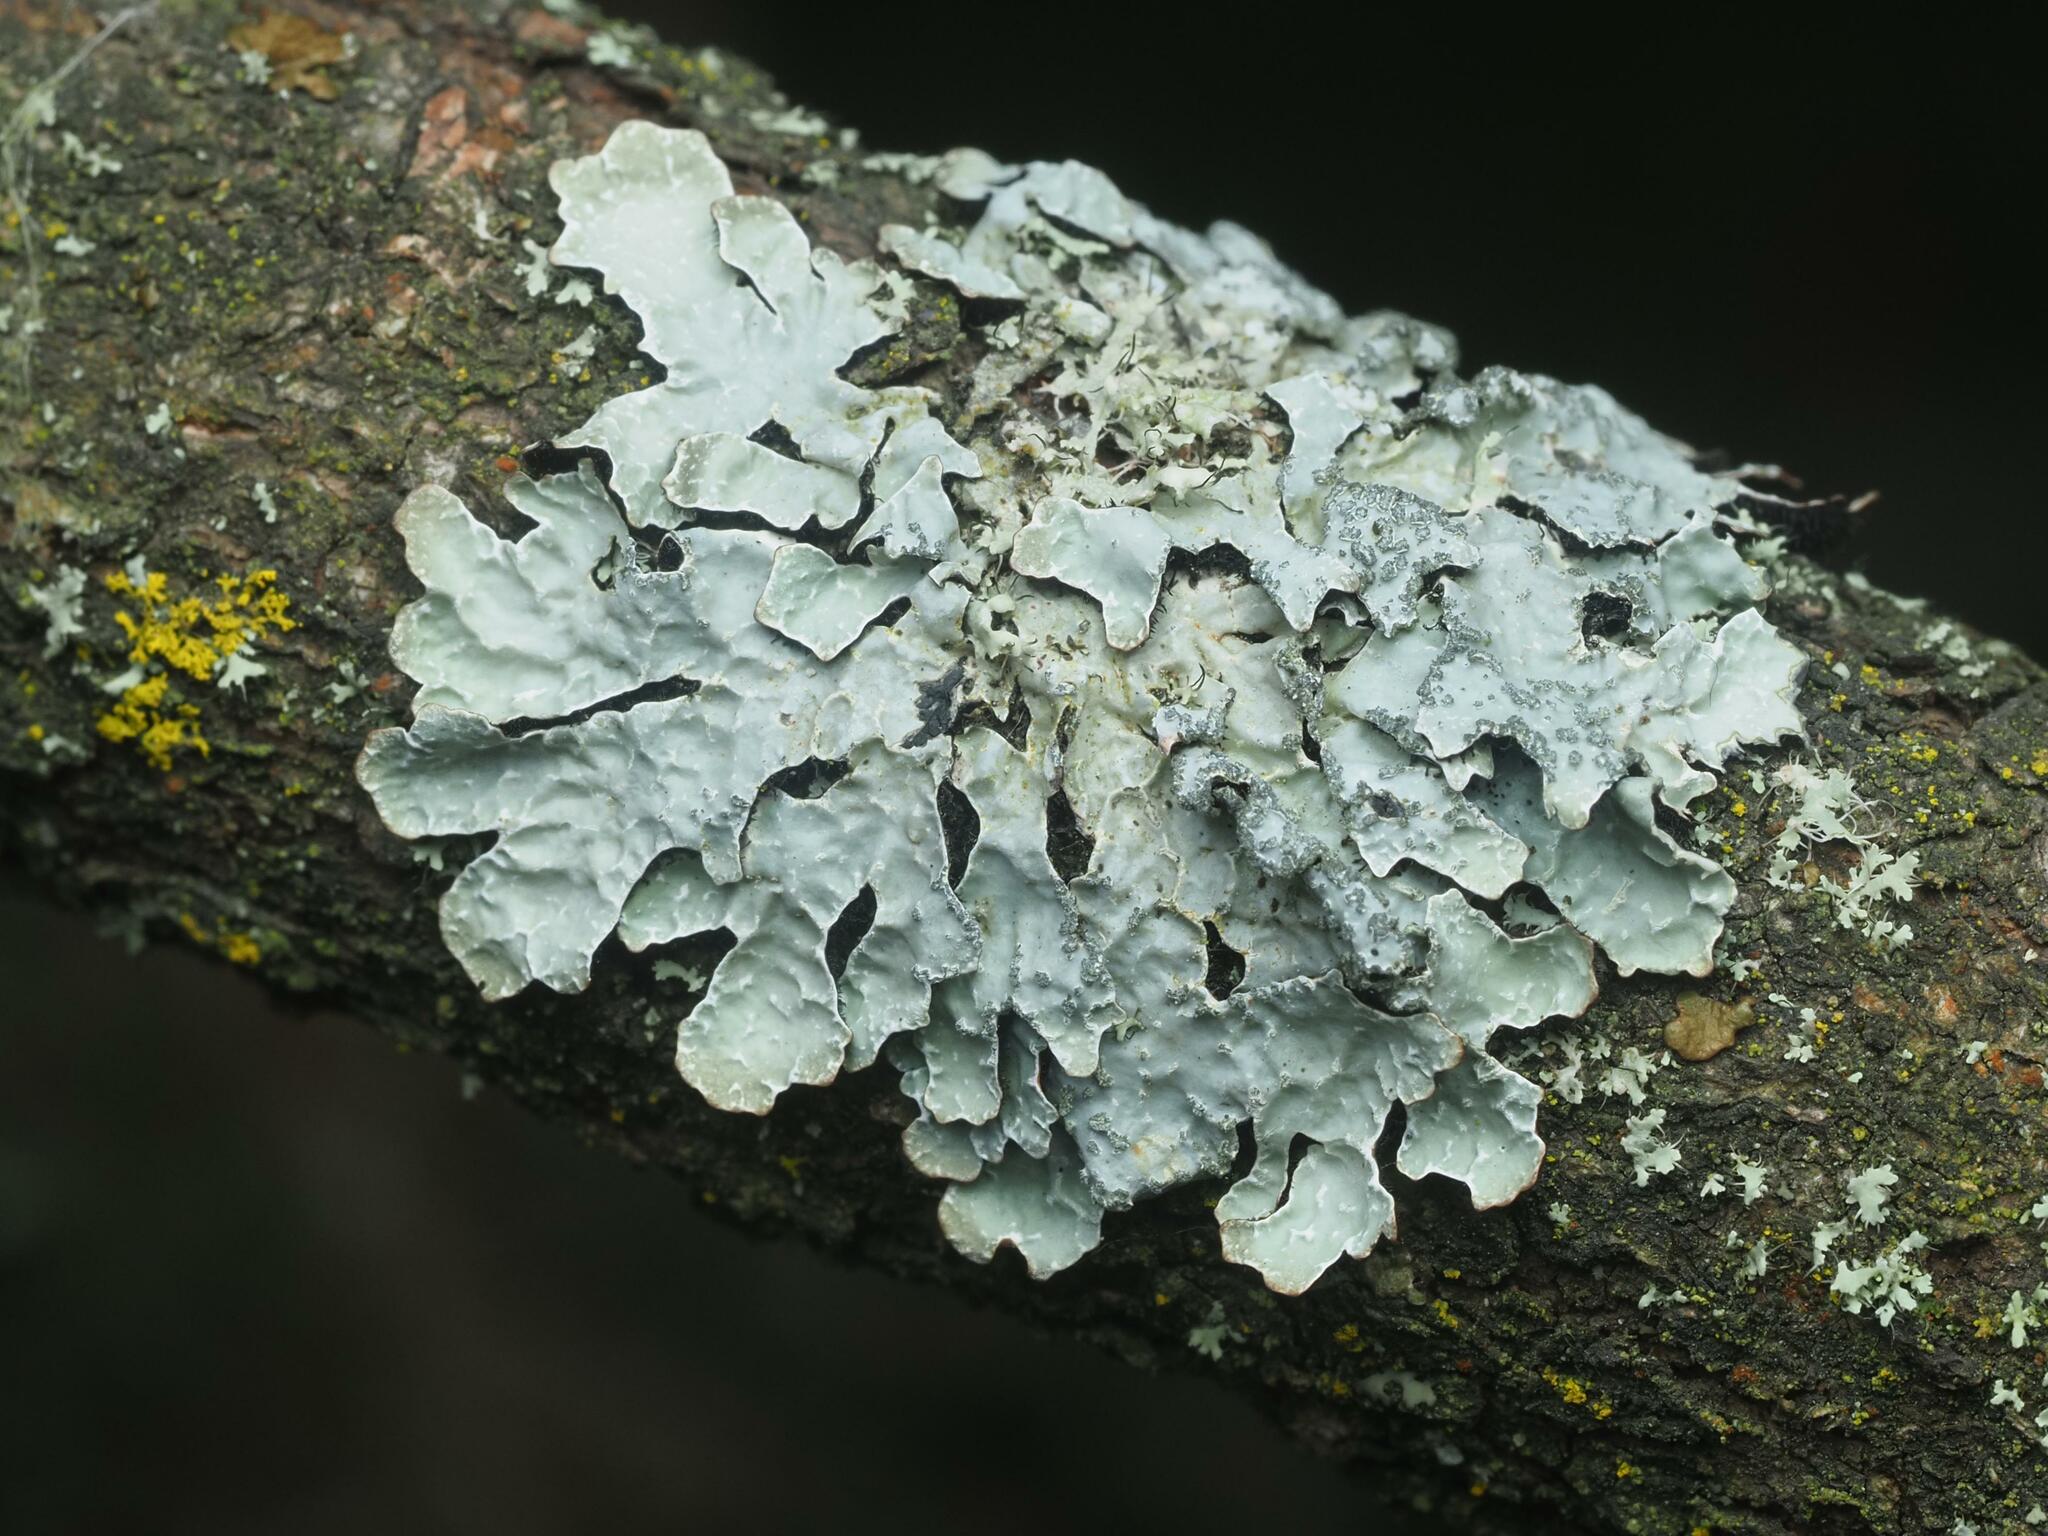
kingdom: Fungi
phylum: Ascomycota
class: Lecanoromycetes
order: Lecanorales
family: Parmeliaceae
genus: Parmelia
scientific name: Parmelia sulcata
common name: Netted shield lichen
